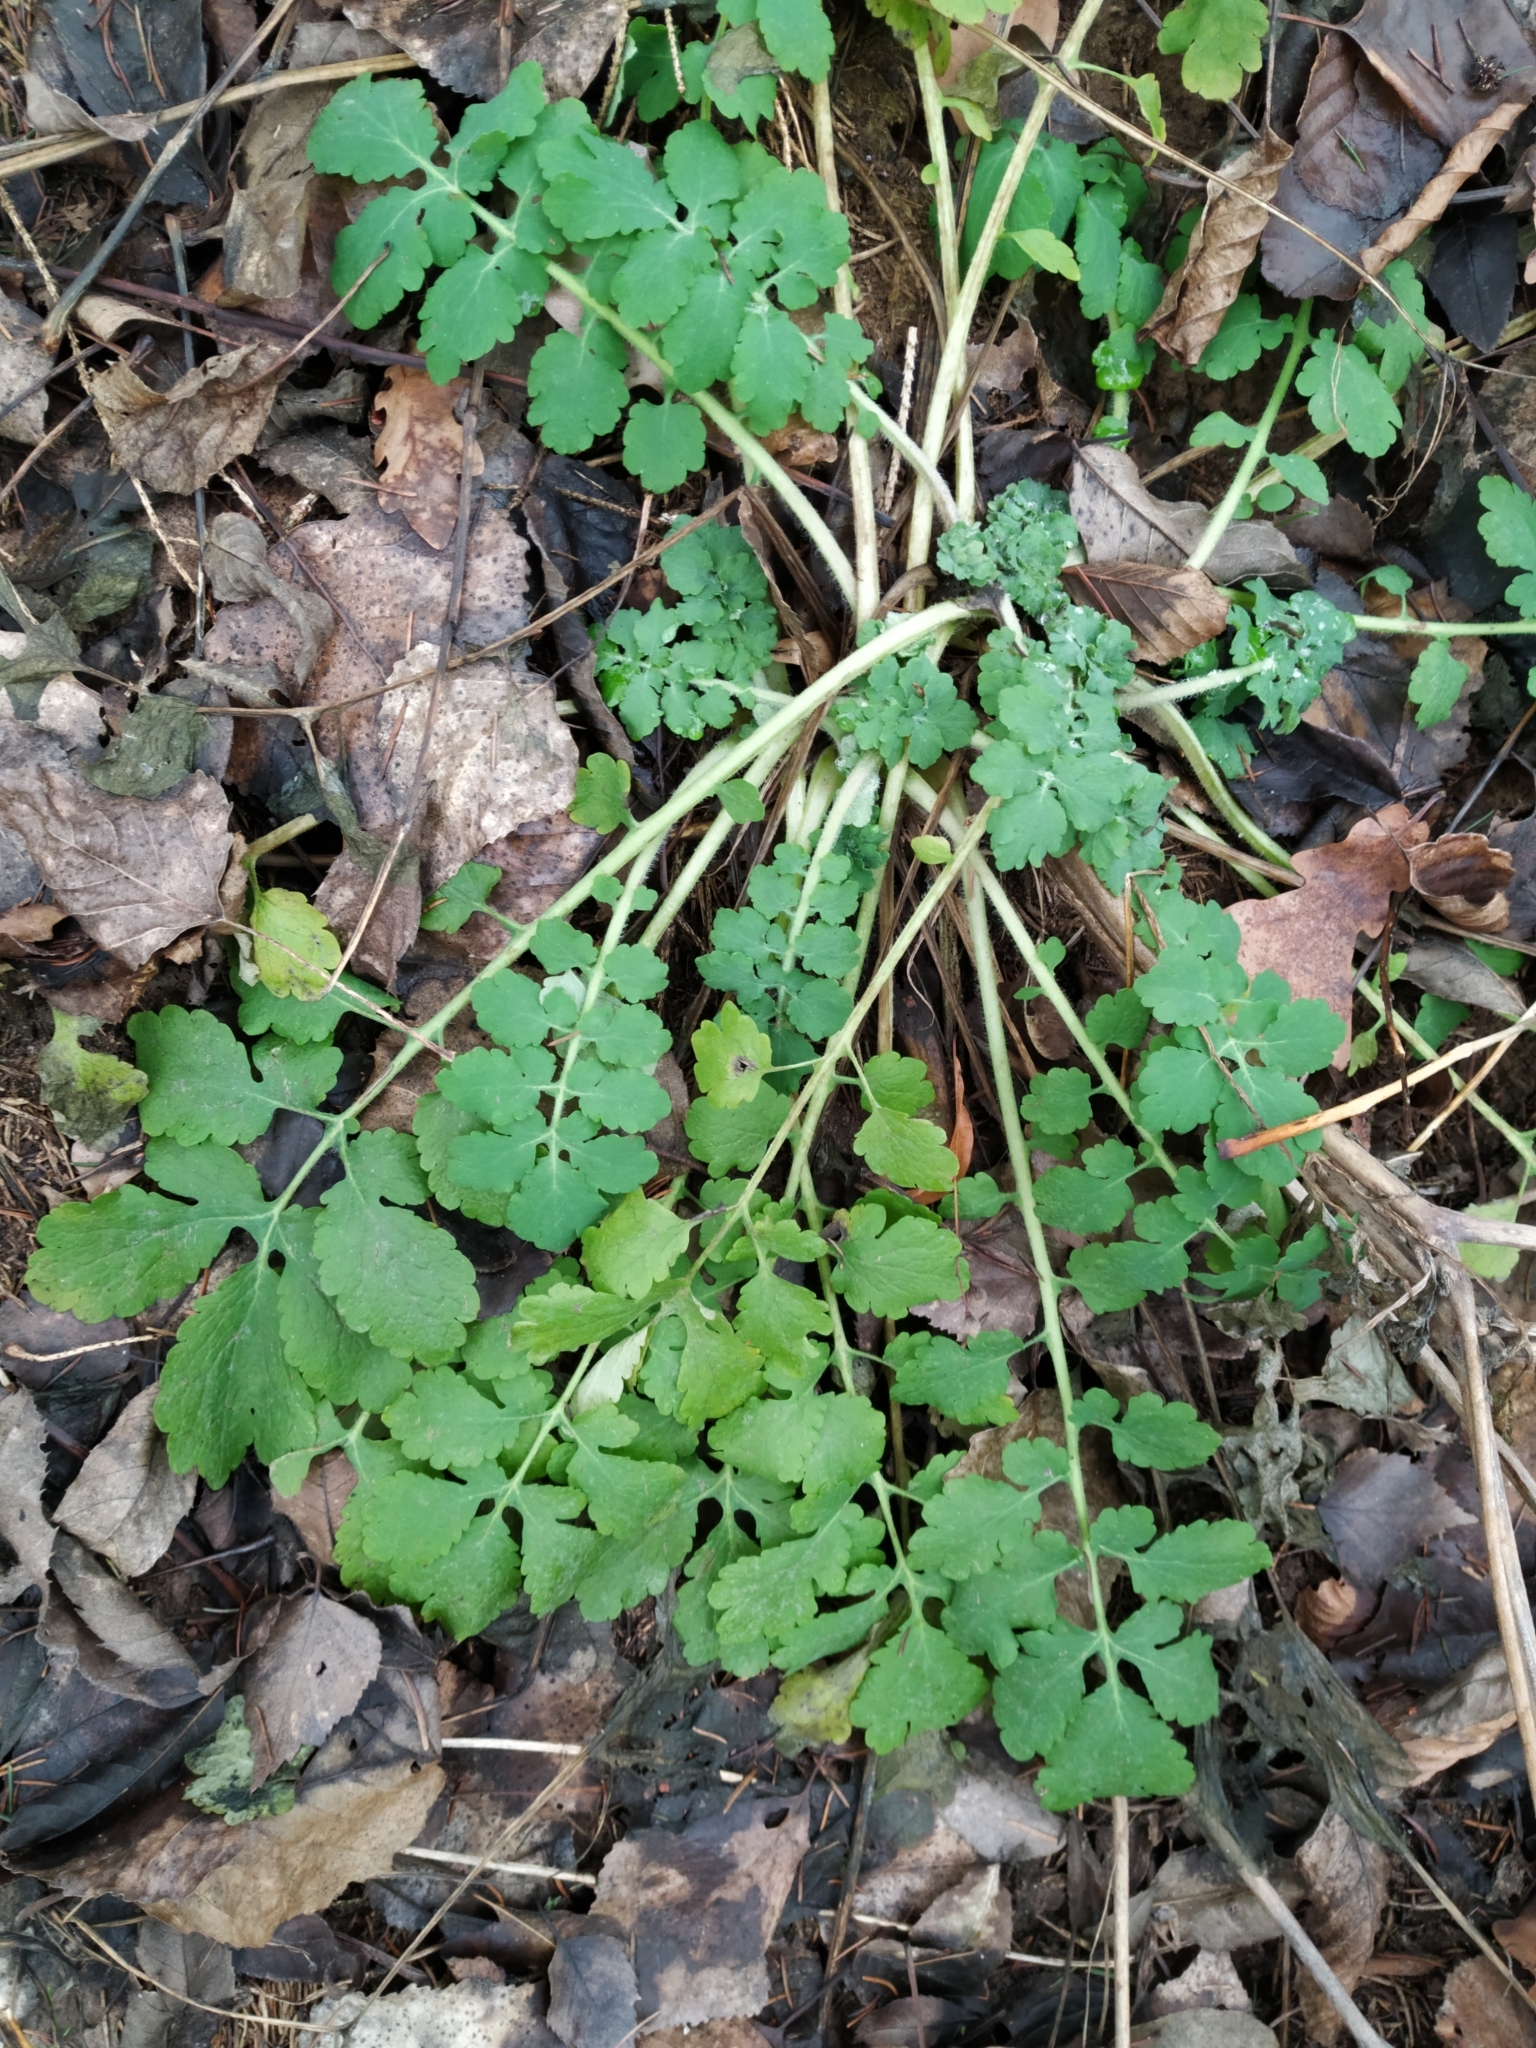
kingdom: Plantae
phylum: Tracheophyta
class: Magnoliopsida
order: Ranunculales
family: Papaveraceae
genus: Chelidonium
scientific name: Chelidonium majus
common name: Greater celandine
